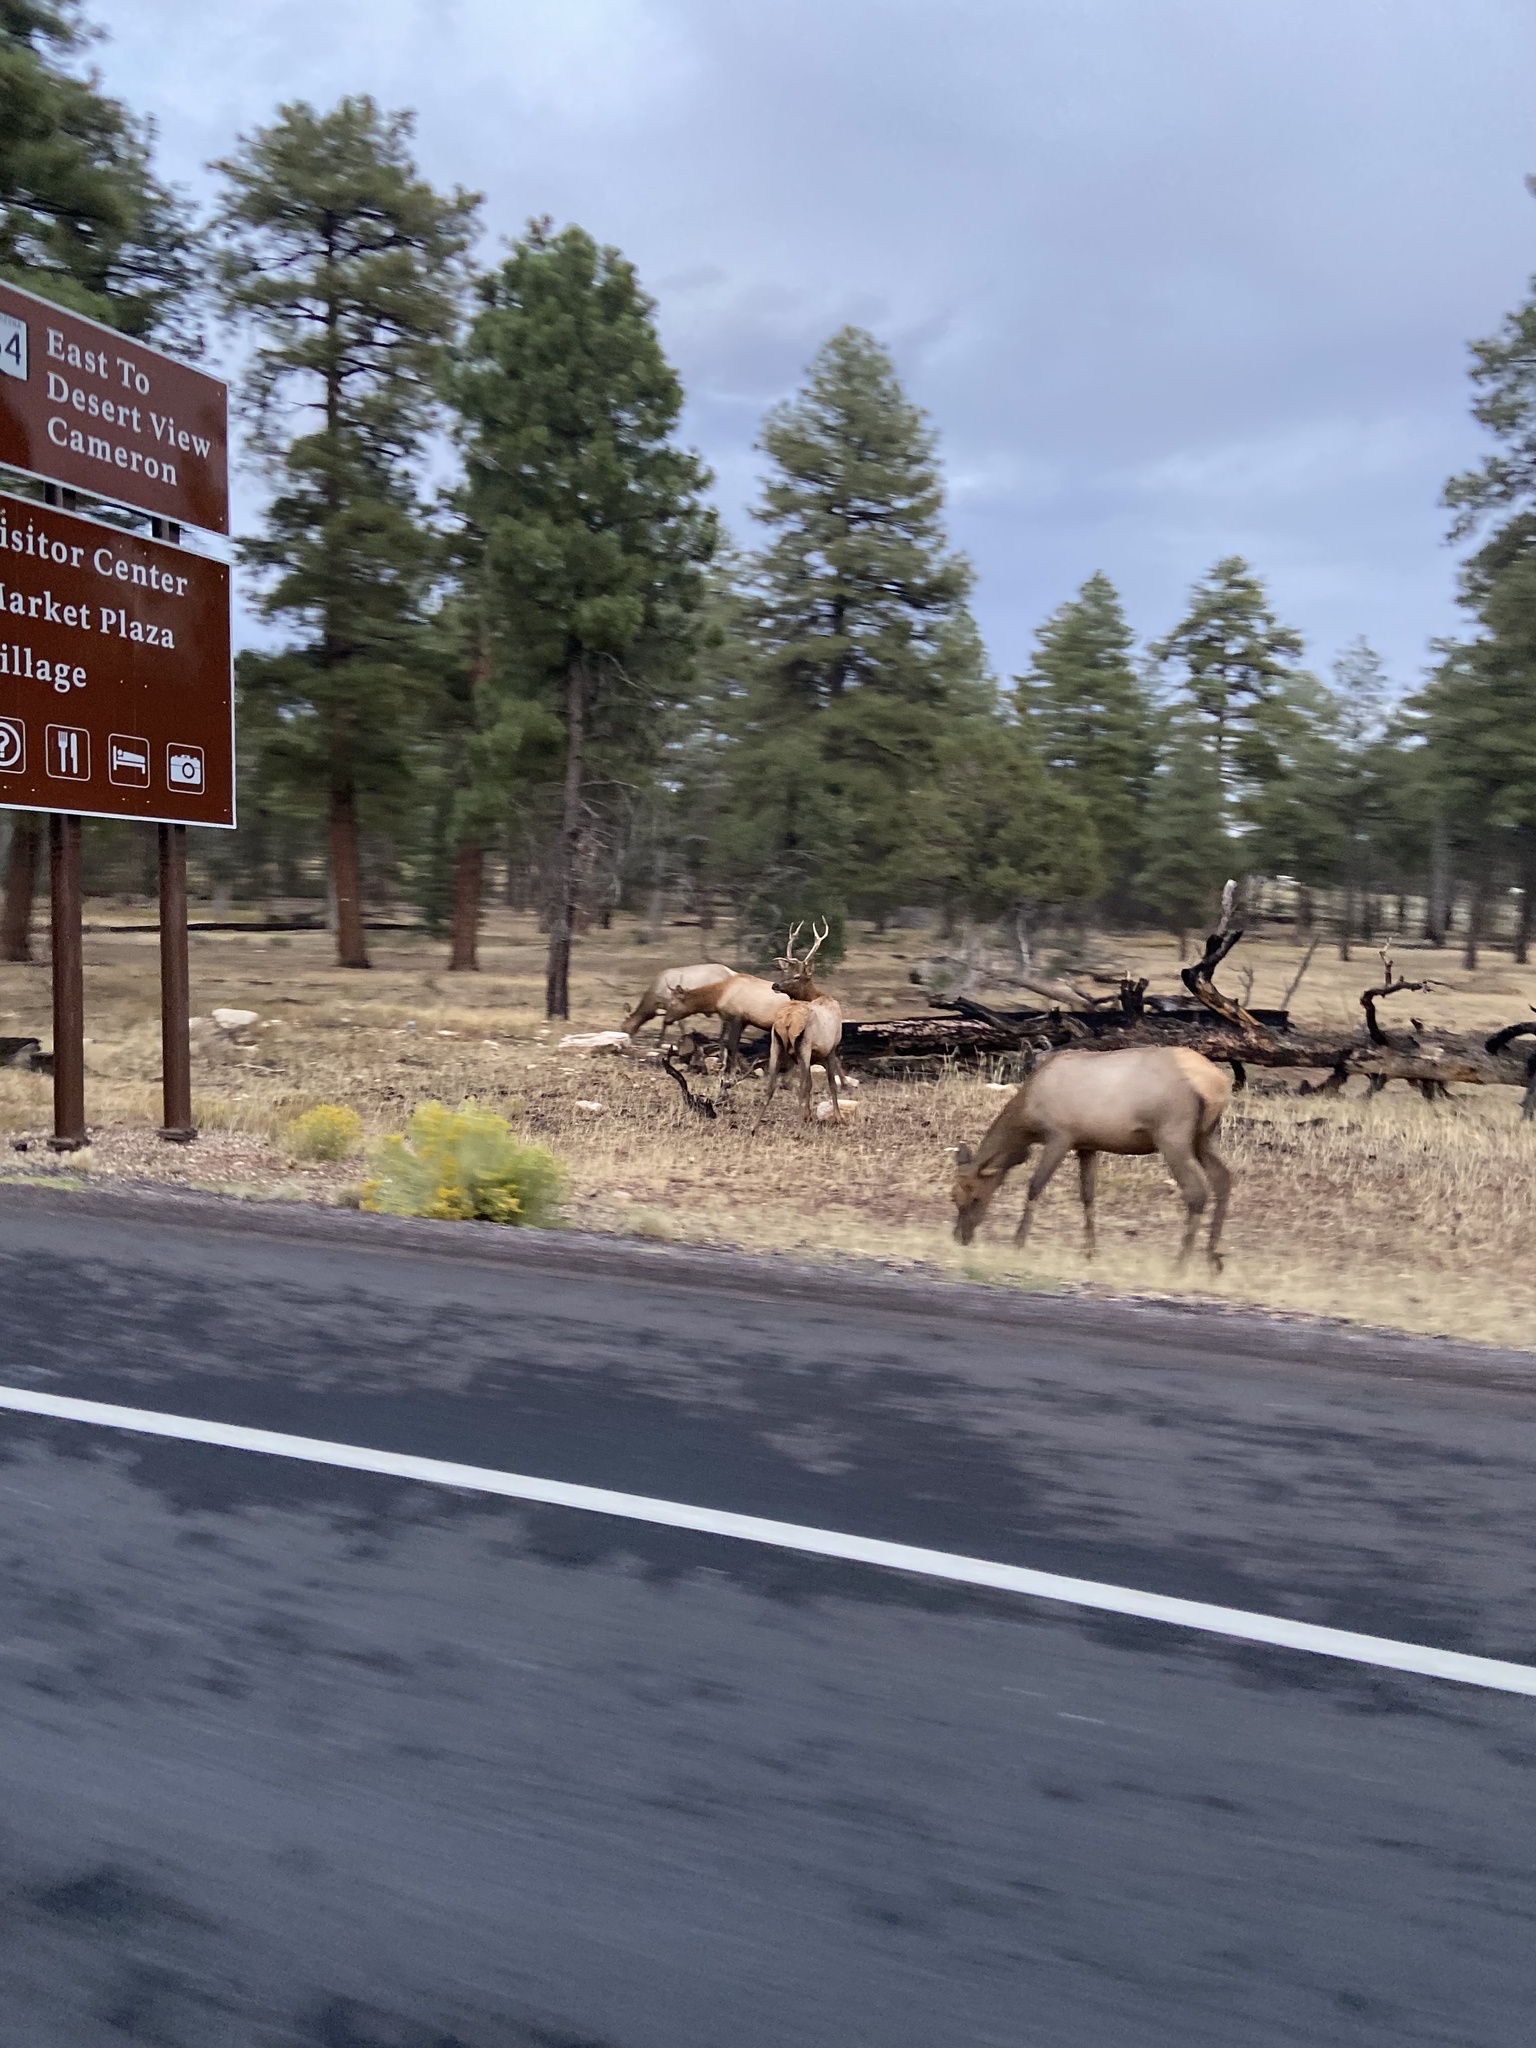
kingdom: Animalia
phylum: Chordata
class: Mammalia
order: Artiodactyla
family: Cervidae
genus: Cervus
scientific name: Cervus elaphus
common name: Red deer
